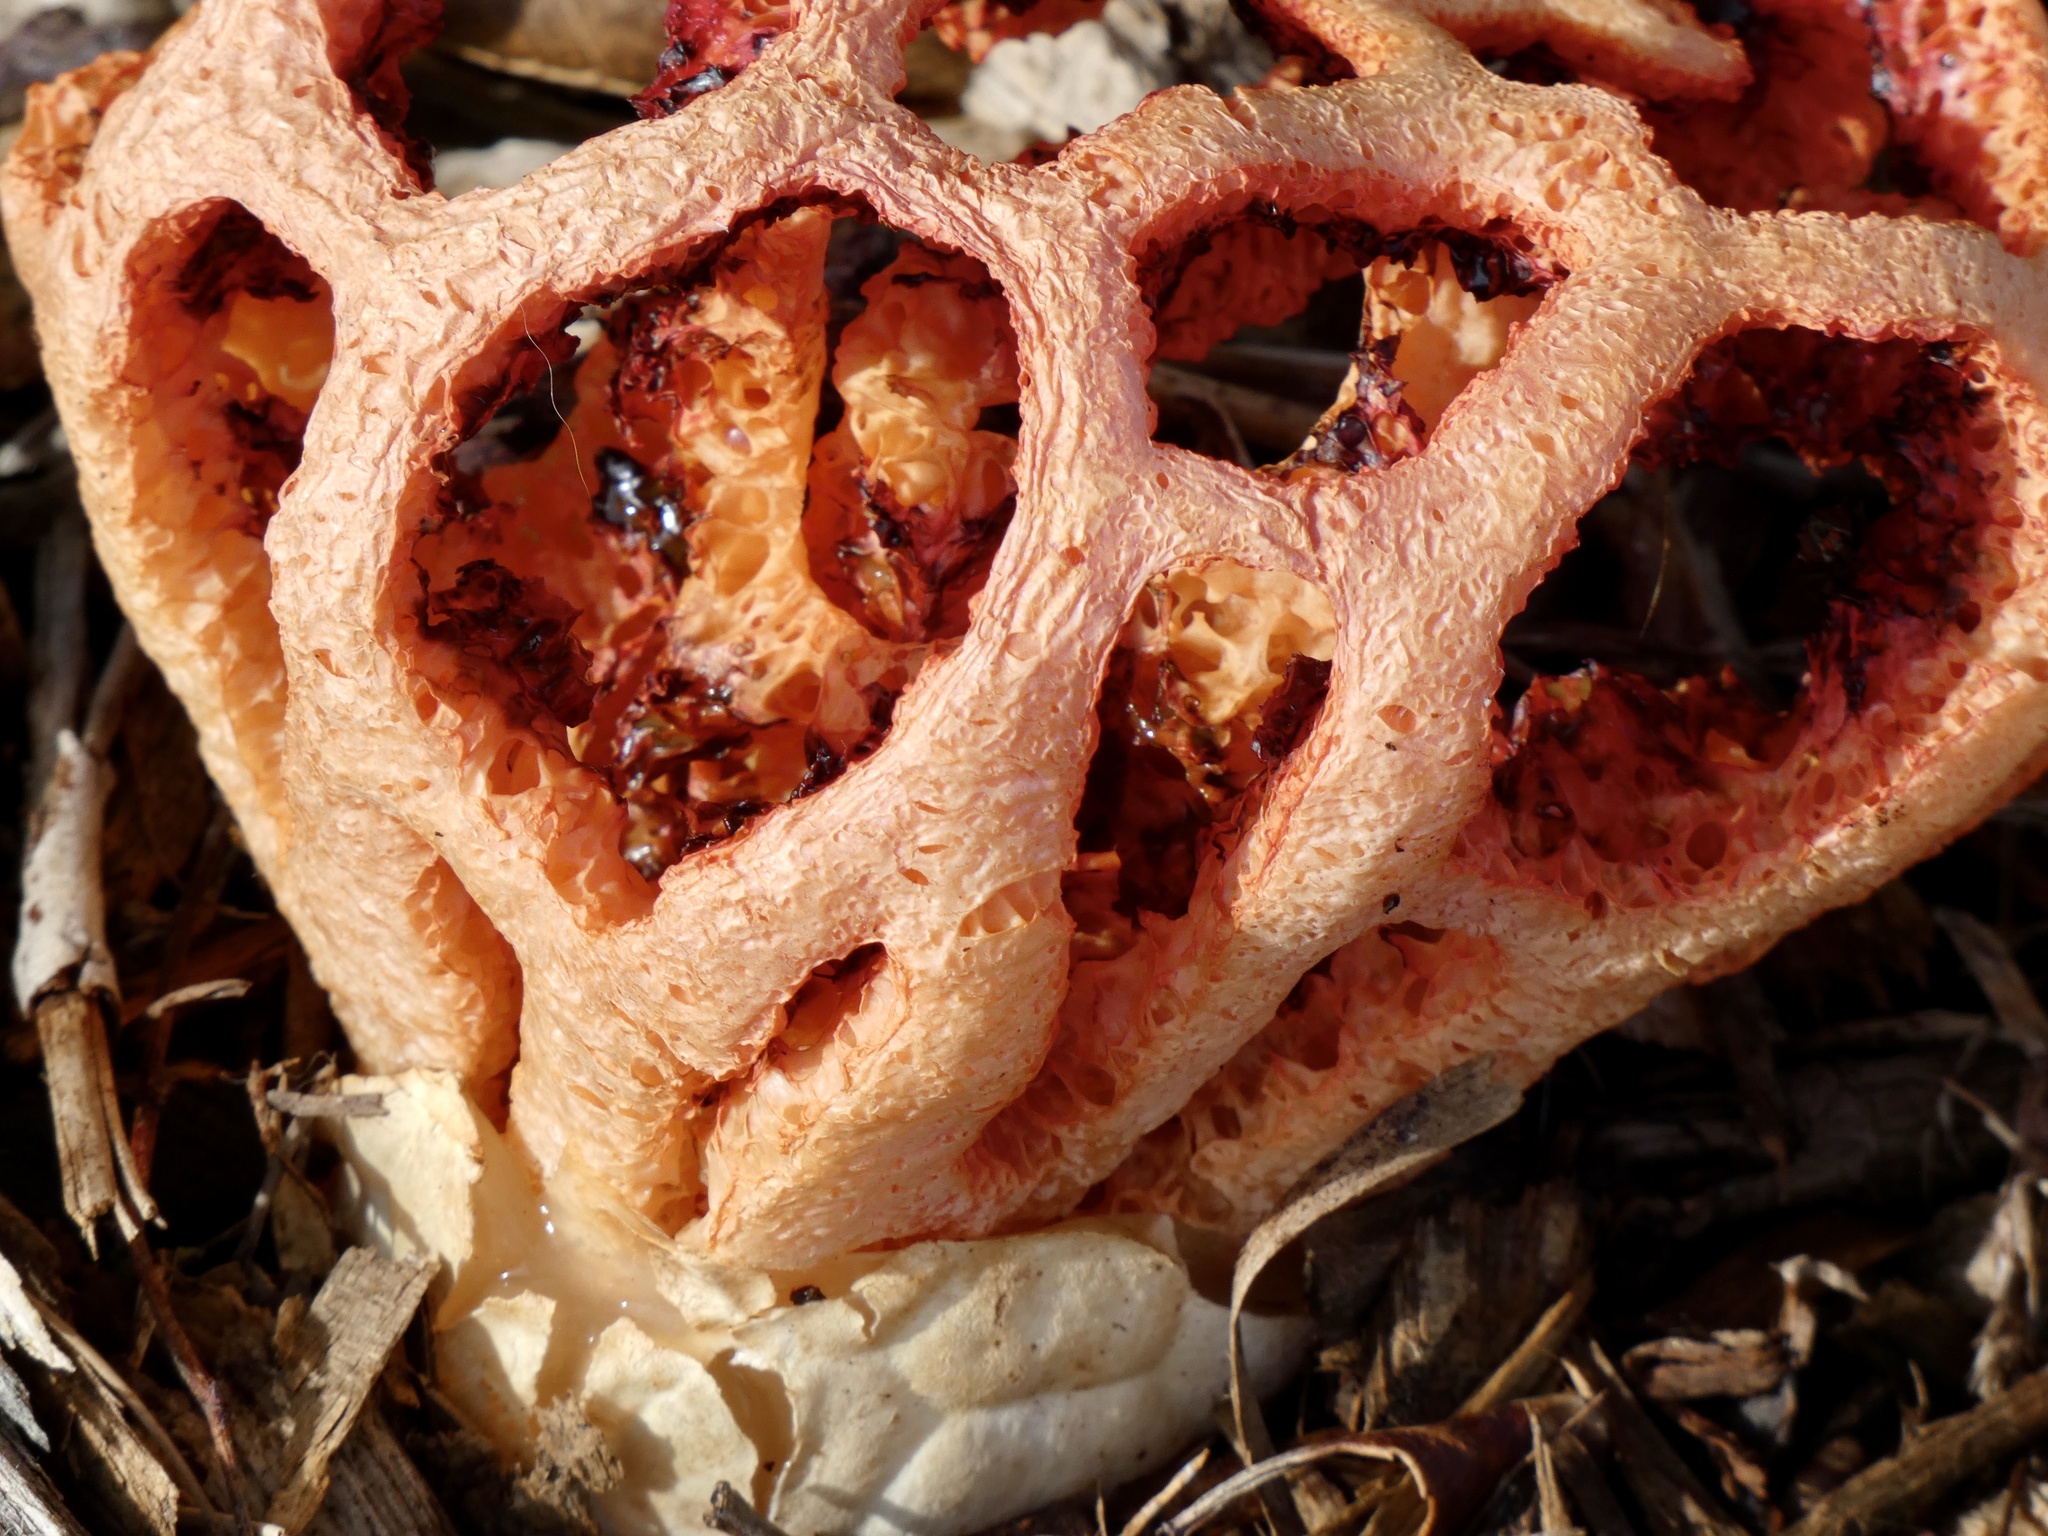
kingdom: Fungi
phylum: Basidiomycota
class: Agaricomycetes
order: Phallales
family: Phallaceae
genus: Clathrus
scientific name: Clathrus ruber
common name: Red cage
